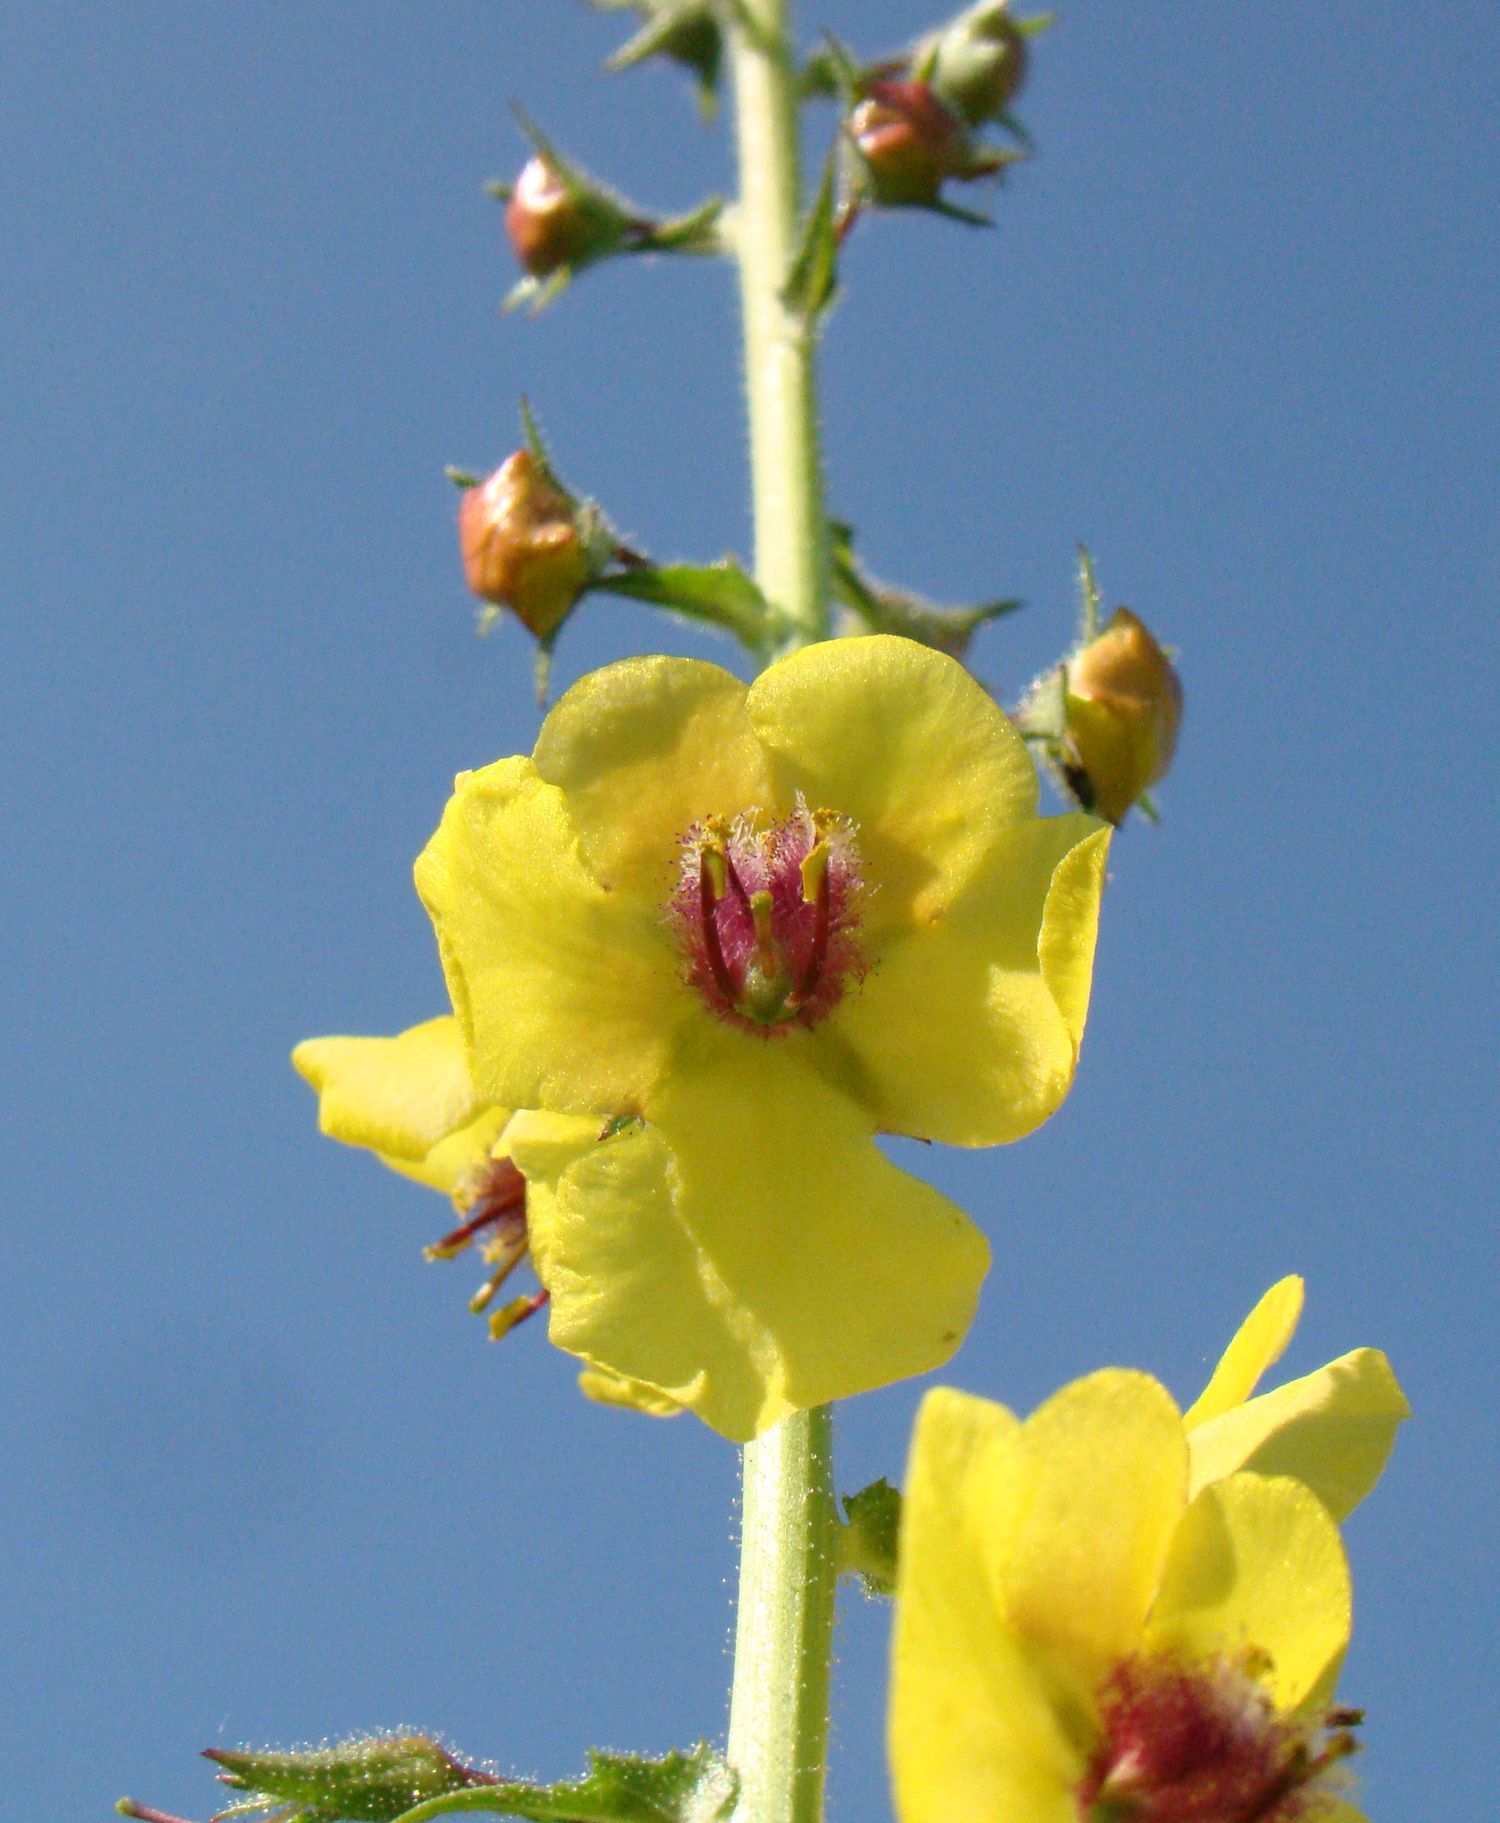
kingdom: Plantae
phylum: Tracheophyta
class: Magnoliopsida
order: Lamiales
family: Scrophulariaceae
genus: Verbascum
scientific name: Verbascum blattaria
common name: Moth mullein
